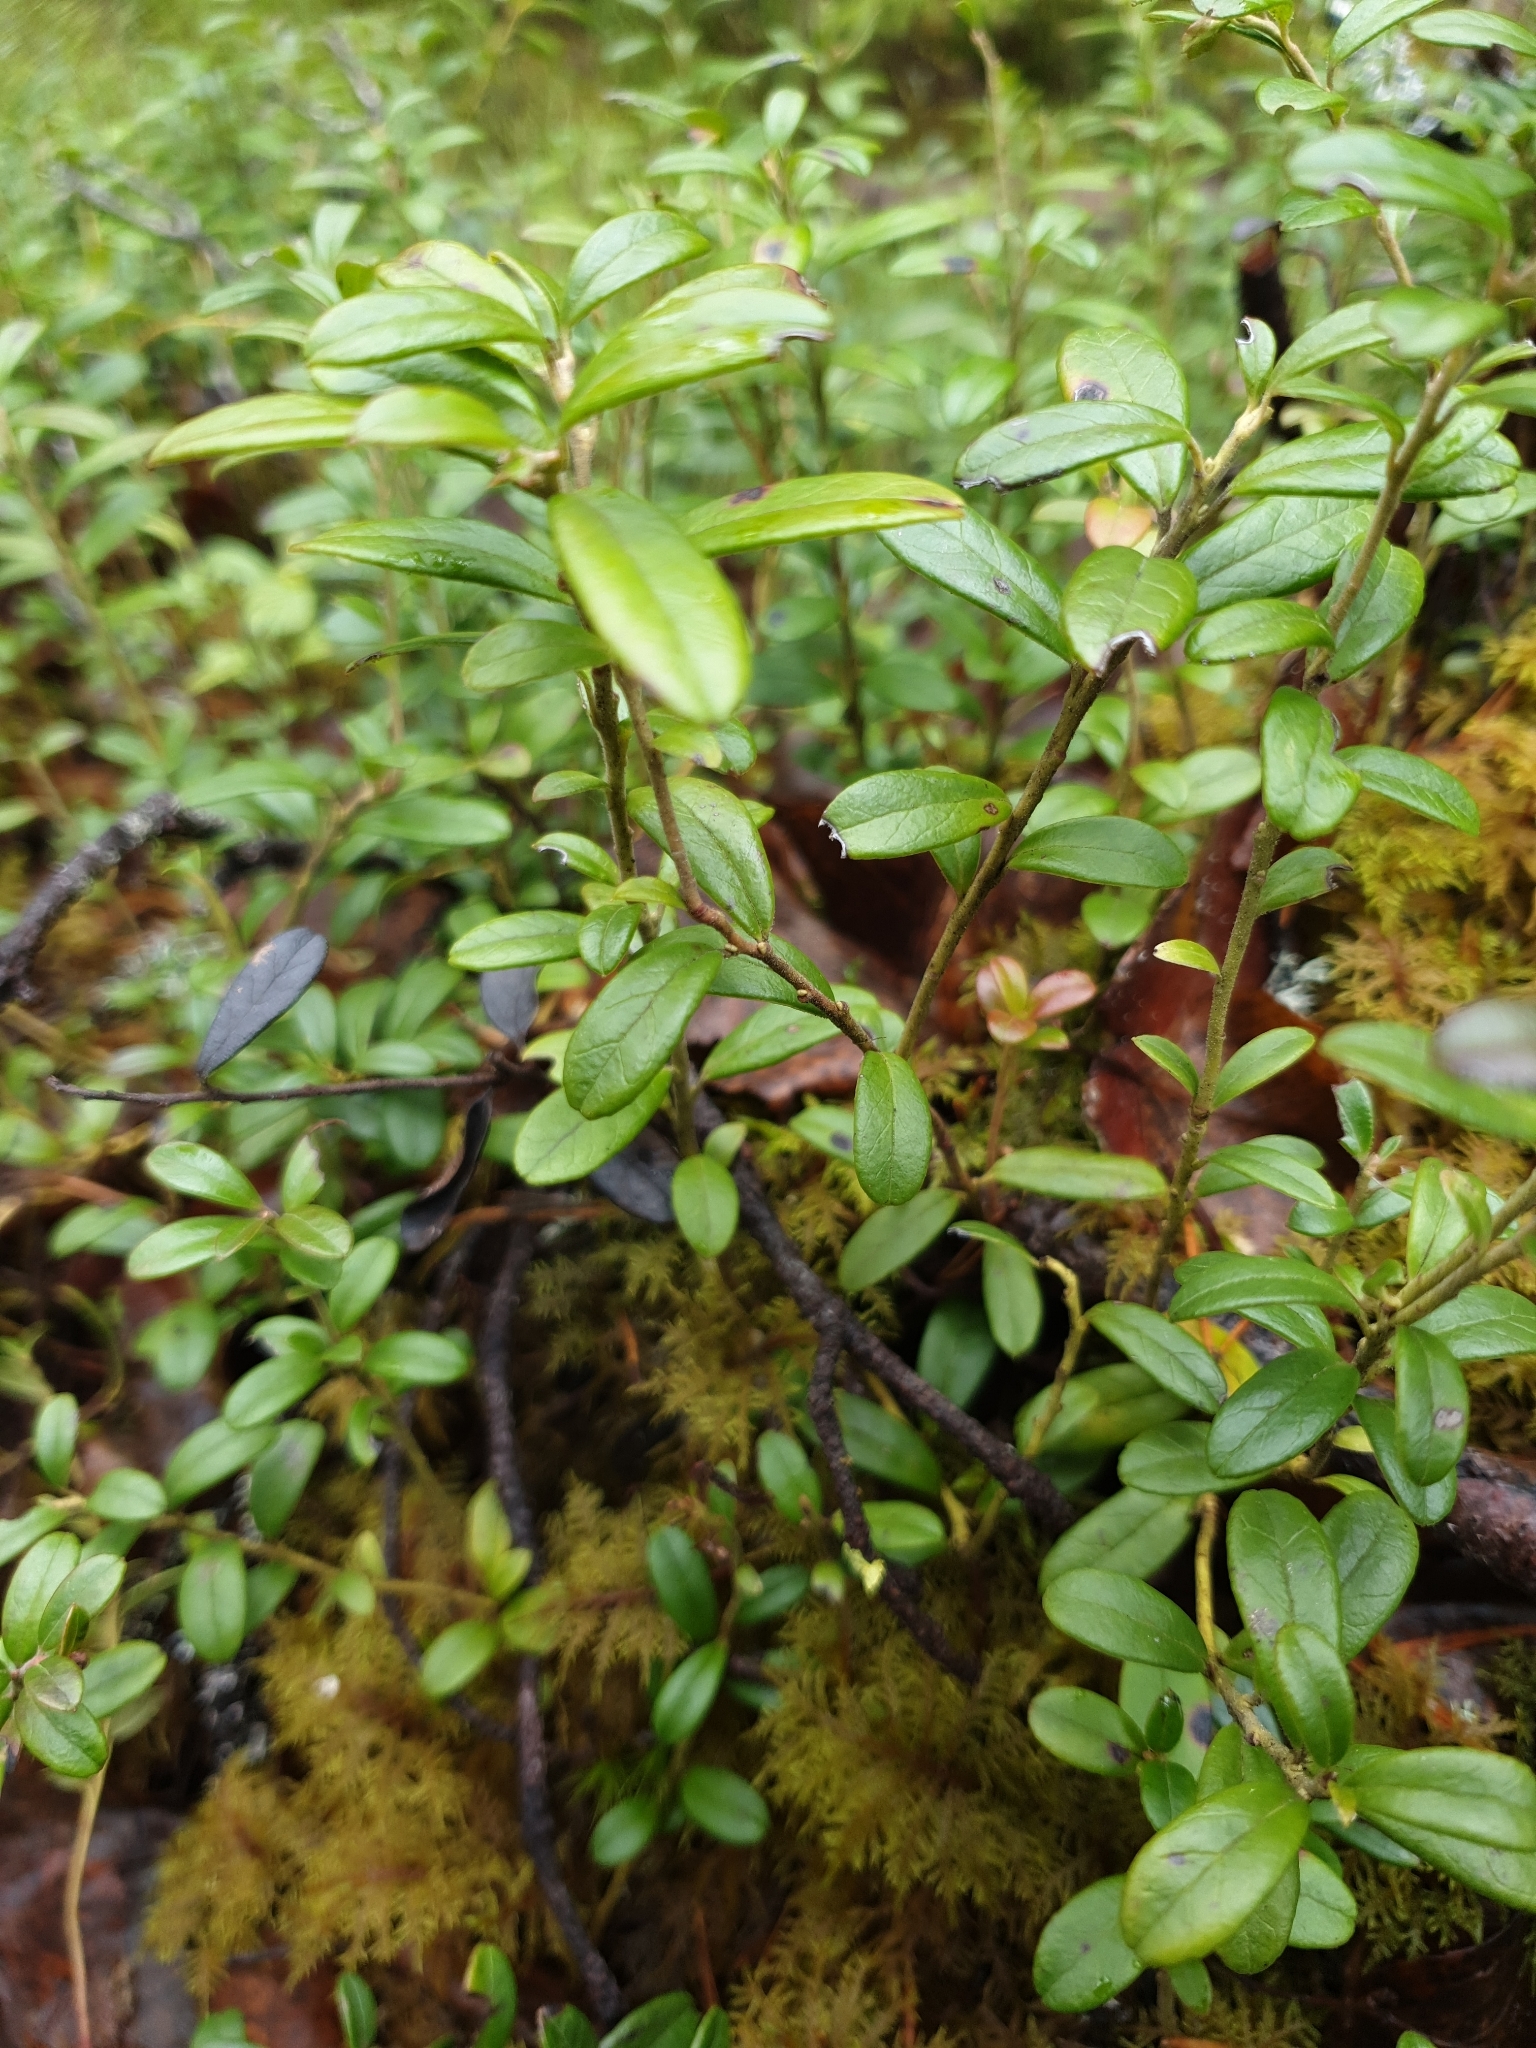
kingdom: Plantae
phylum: Tracheophyta
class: Magnoliopsida
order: Ericales
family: Ericaceae
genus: Vaccinium
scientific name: Vaccinium vitis-idaea
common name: Cowberry
